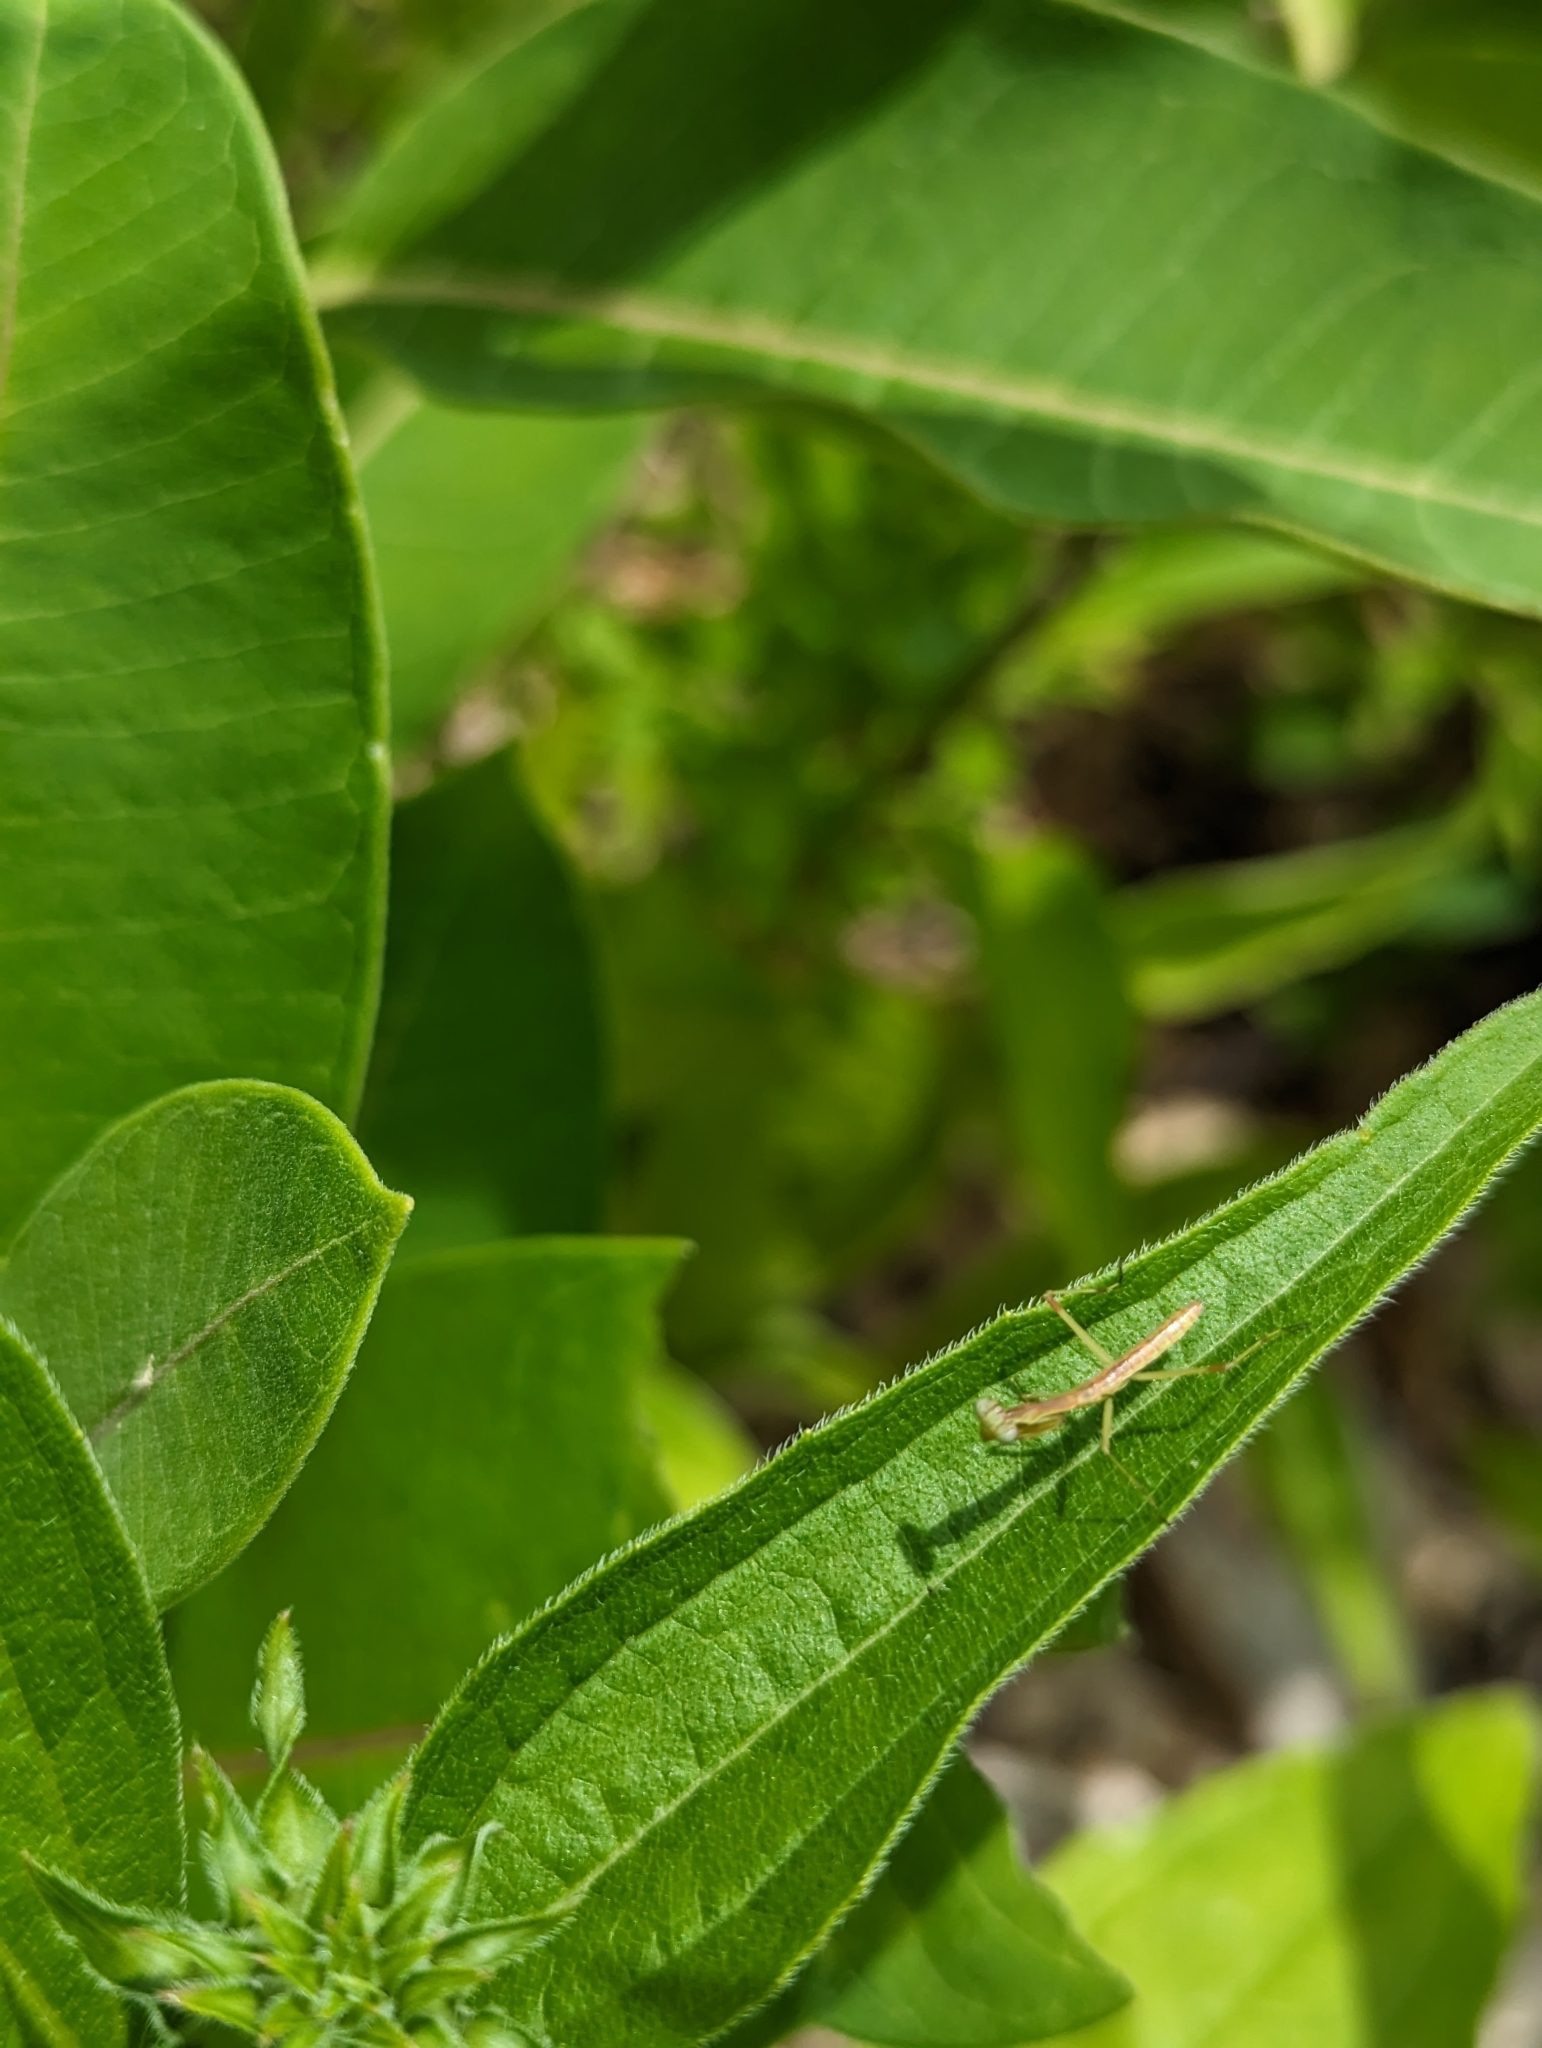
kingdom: Animalia
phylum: Arthropoda
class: Insecta
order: Mantodea
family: Mantidae
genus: Stagmomantis
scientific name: Stagmomantis carolina
